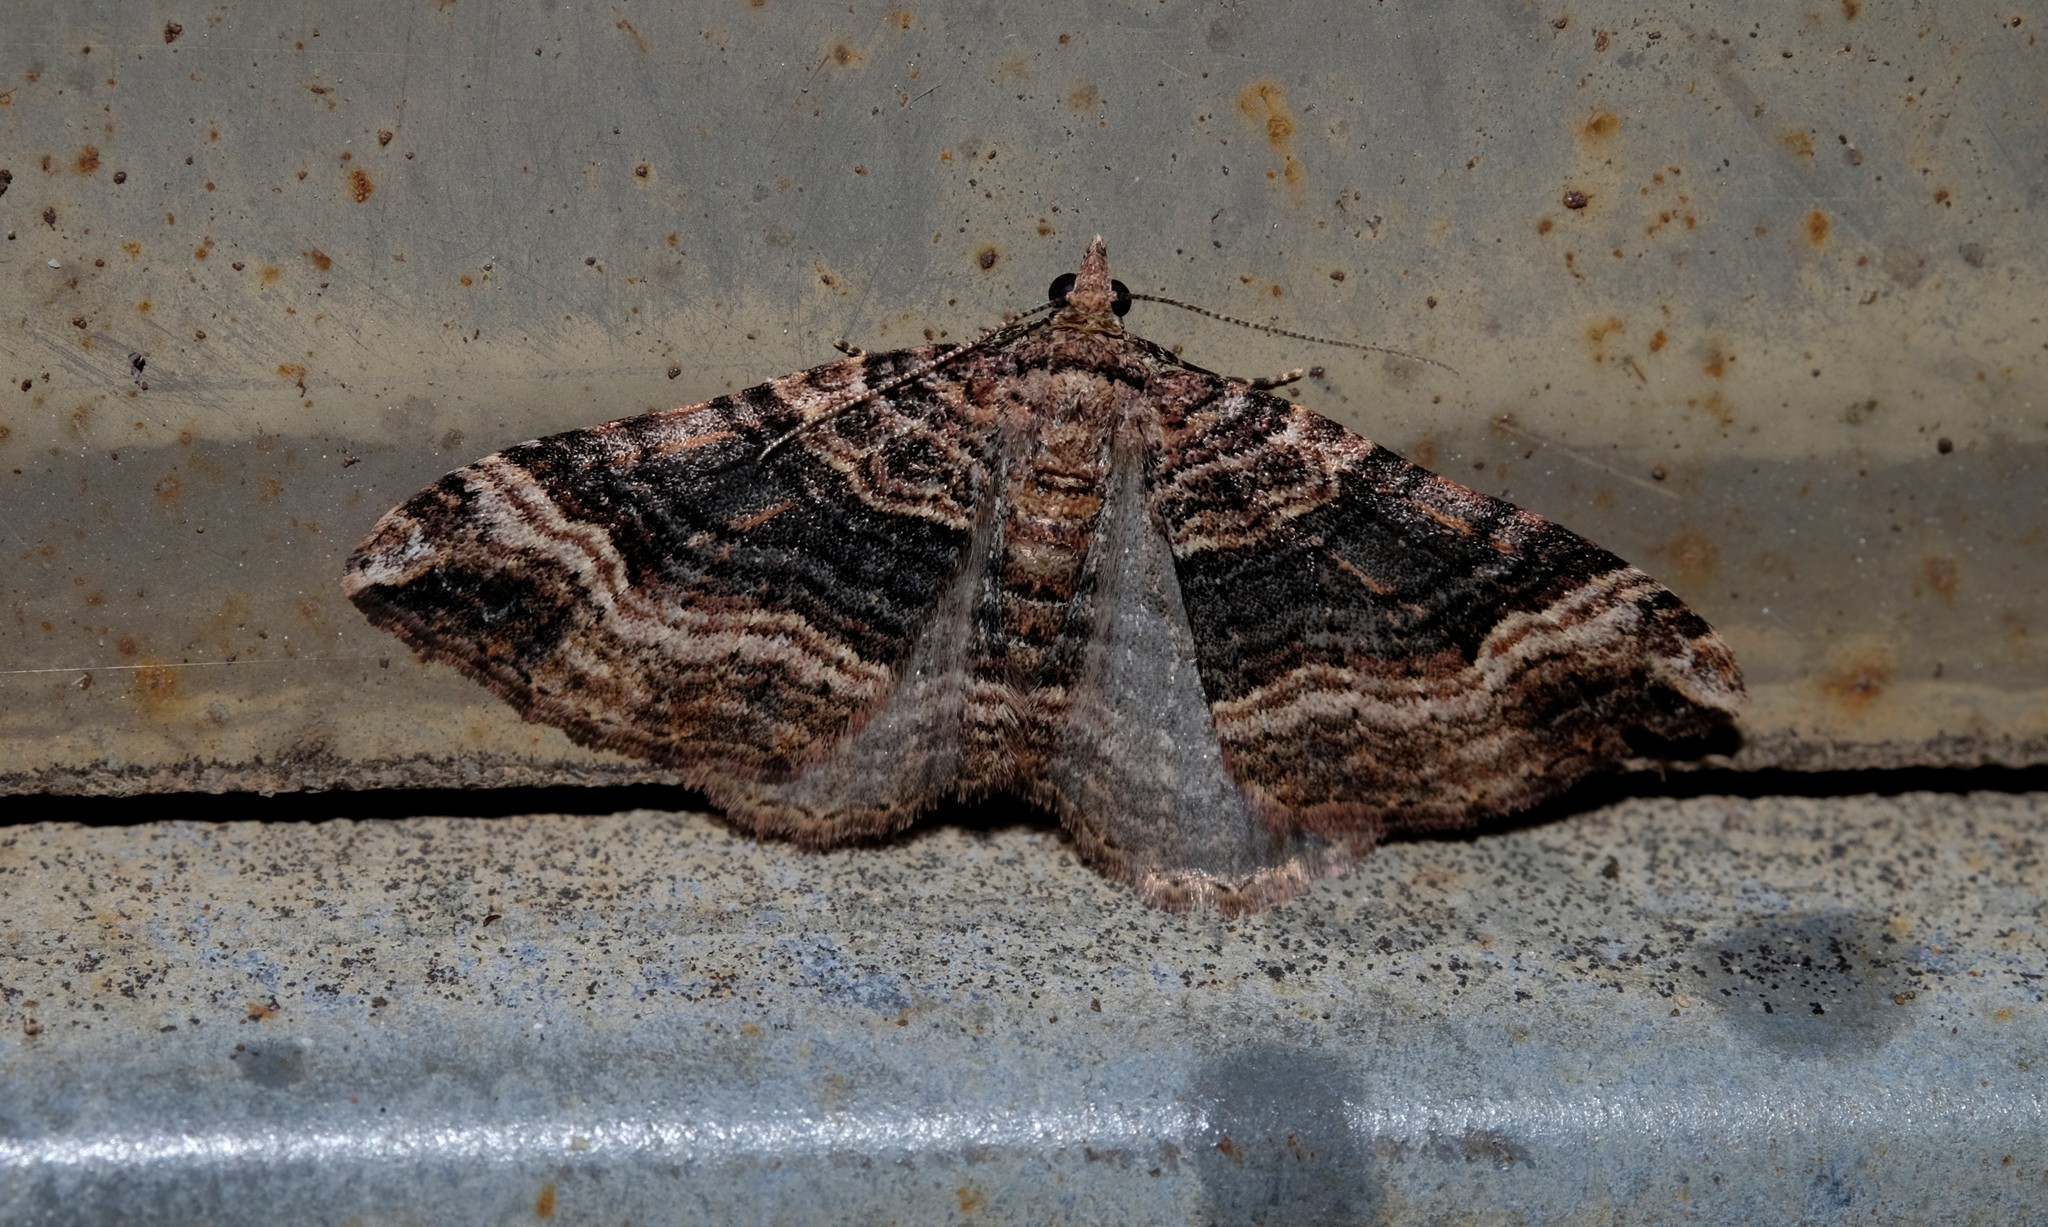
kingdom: Animalia
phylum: Arthropoda
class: Insecta
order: Lepidoptera
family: Geometridae
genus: Epyaxa
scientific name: Epyaxa subidaria
